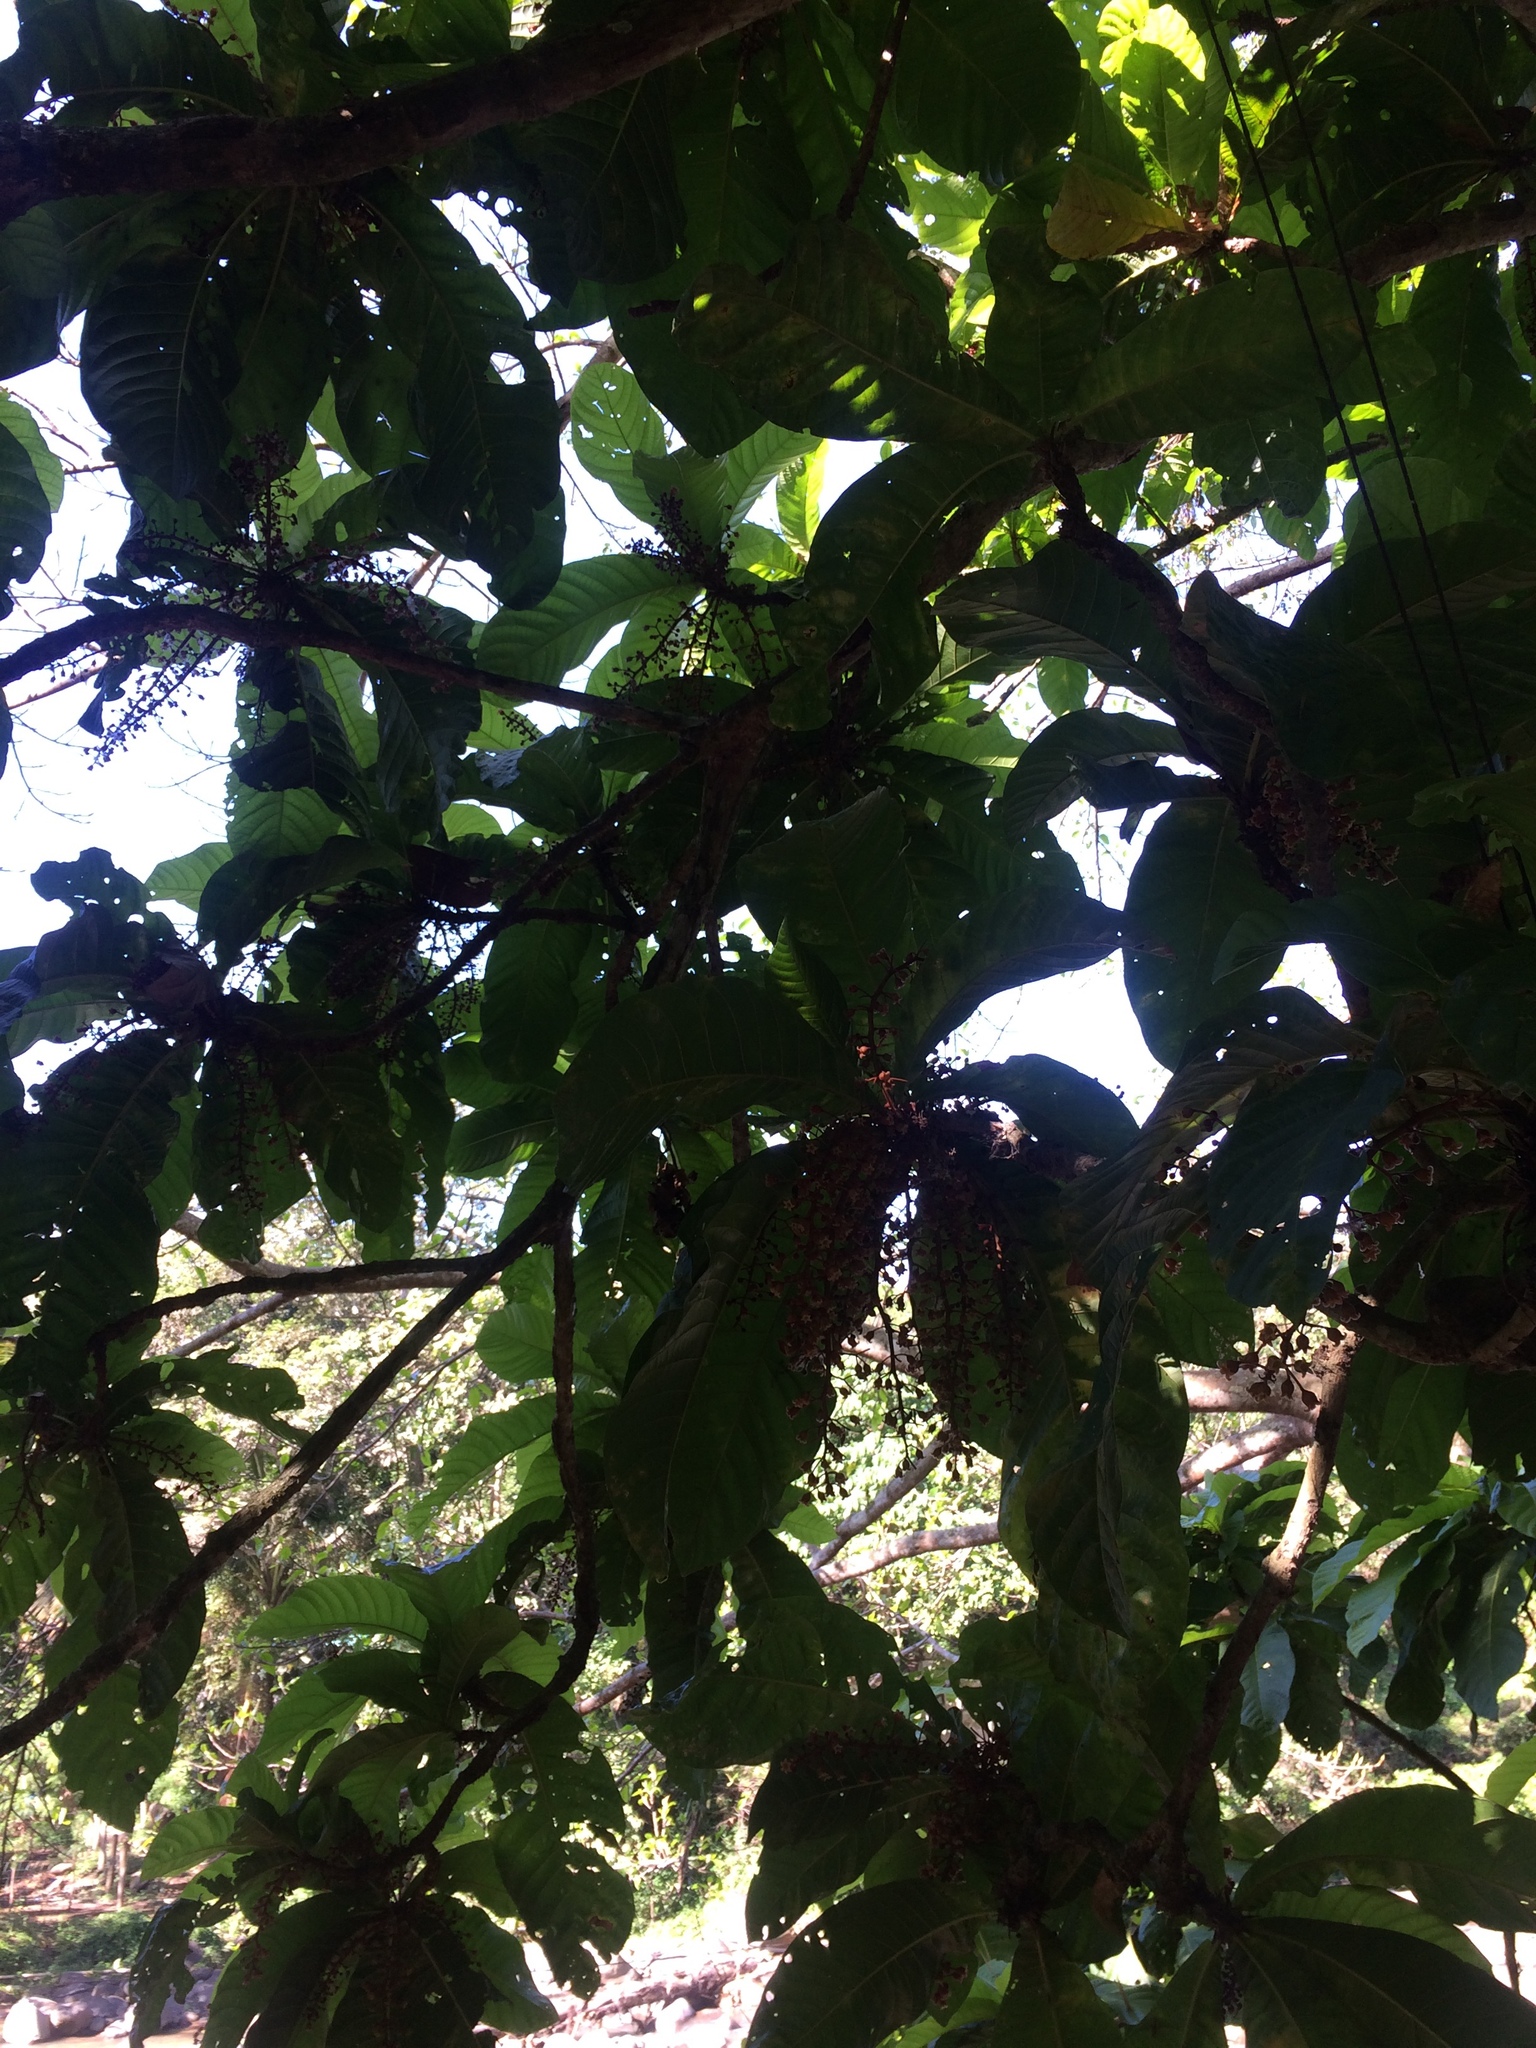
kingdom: Plantae
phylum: Tracheophyta
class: Magnoliopsida
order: Malvales
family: Malvaceae
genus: Sterculia
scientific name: Sterculia stipulata
